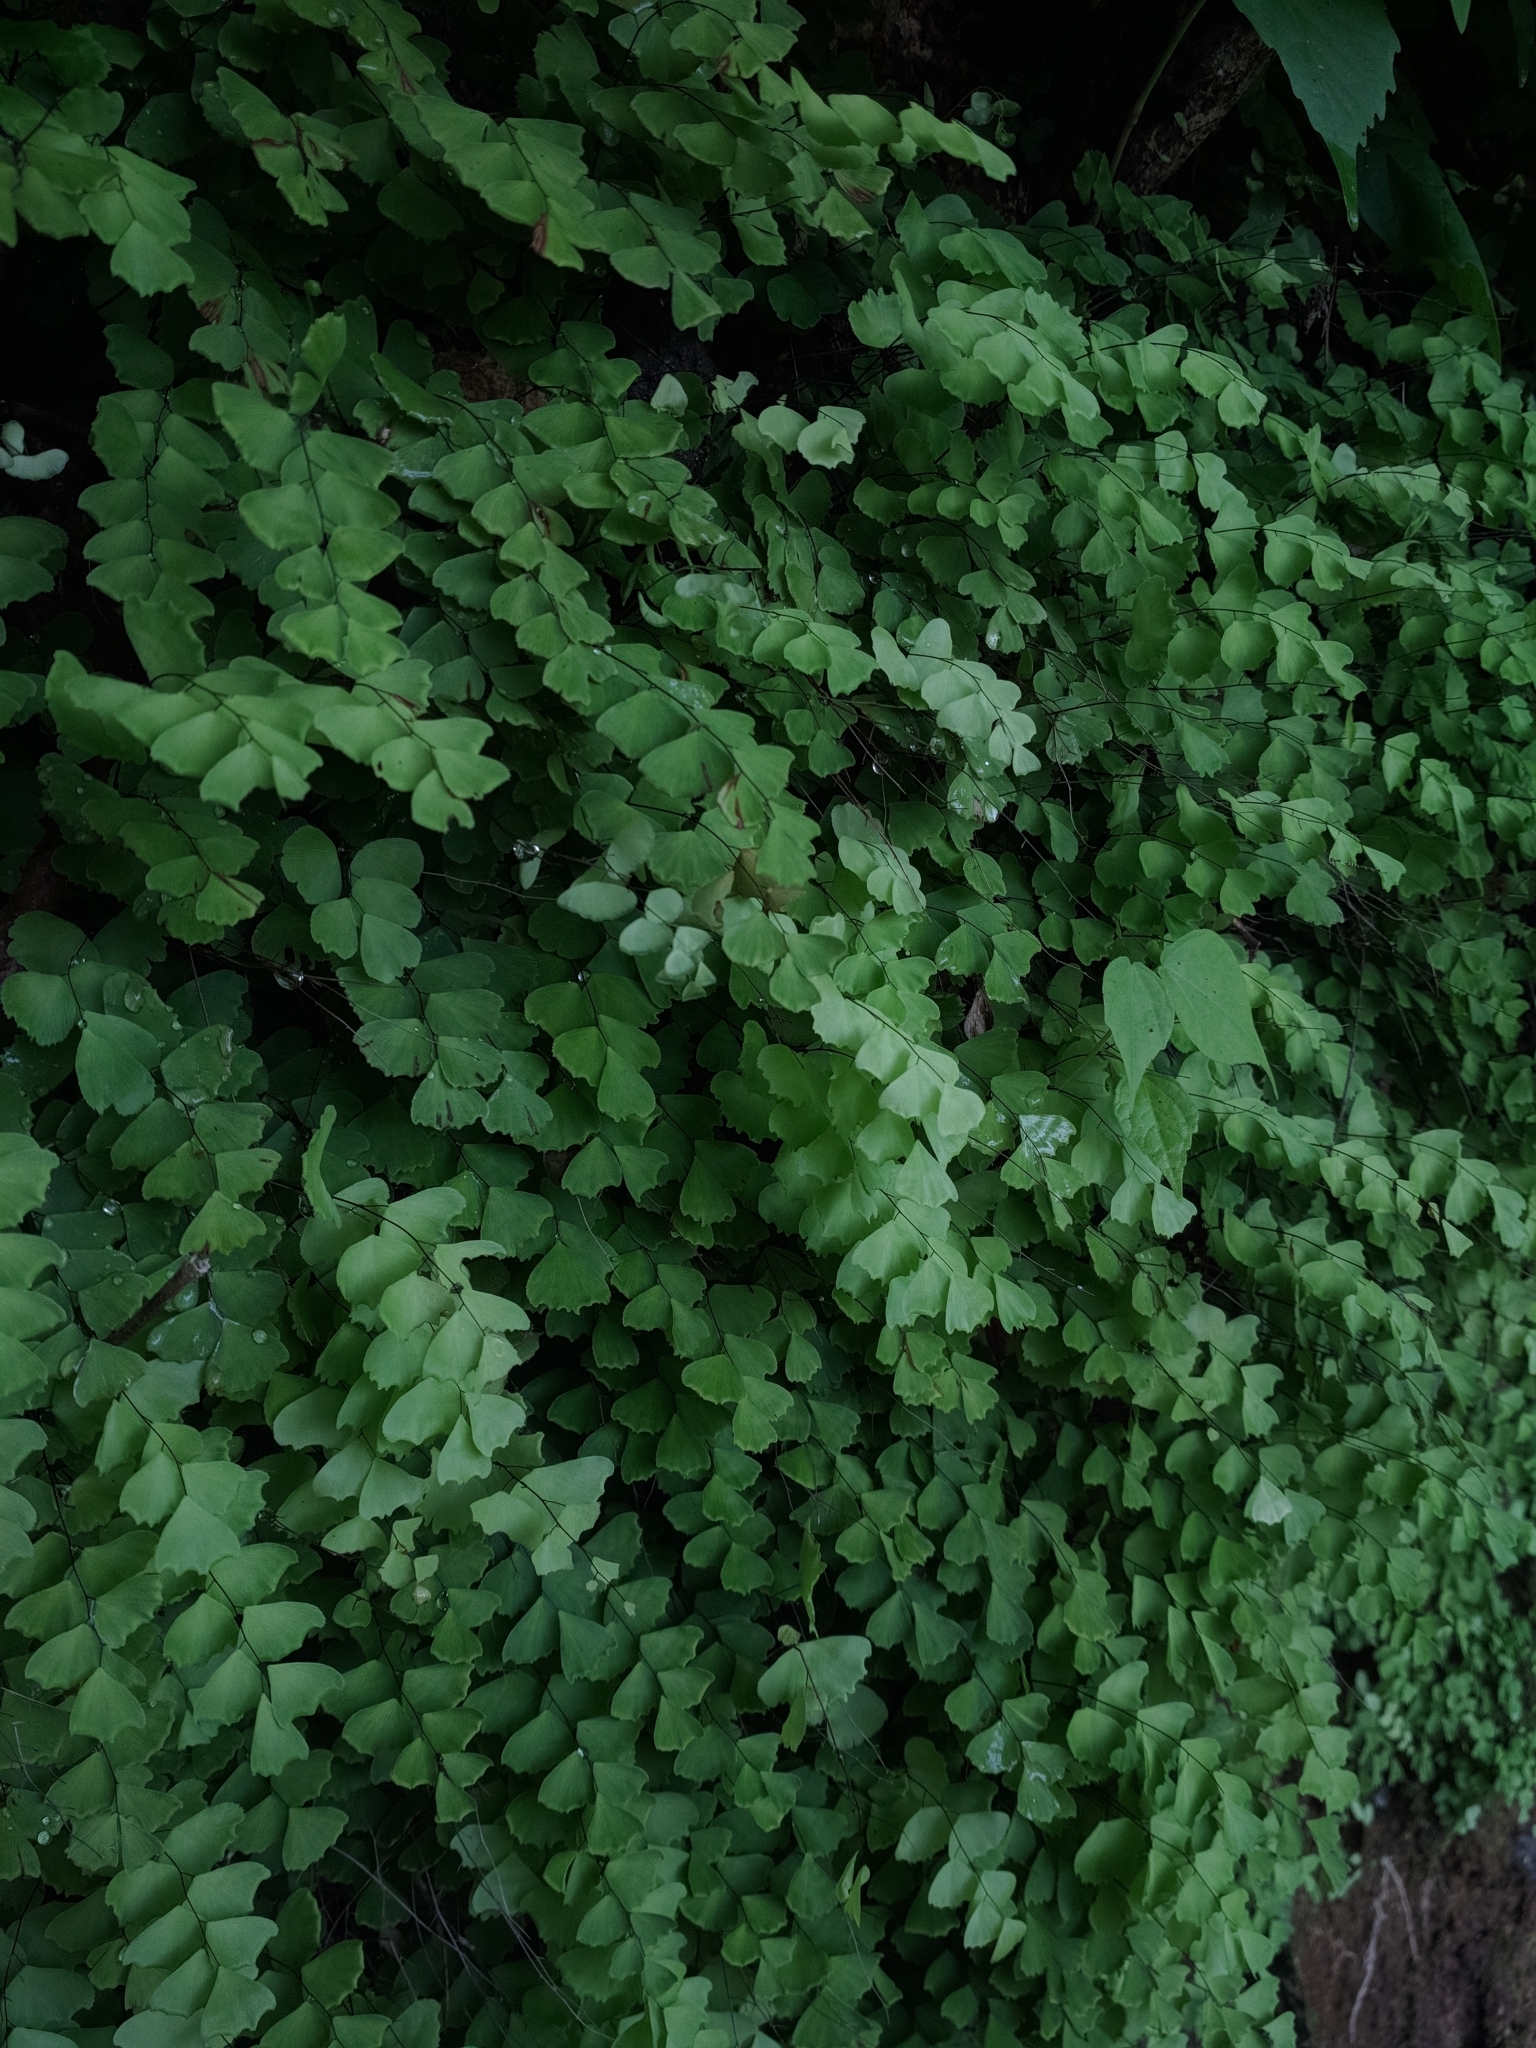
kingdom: Plantae
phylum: Tracheophyta
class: Polypodiopsida
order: Polypodiales
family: Pteridaceae
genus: Adiantum
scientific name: Adiantum deflectens
